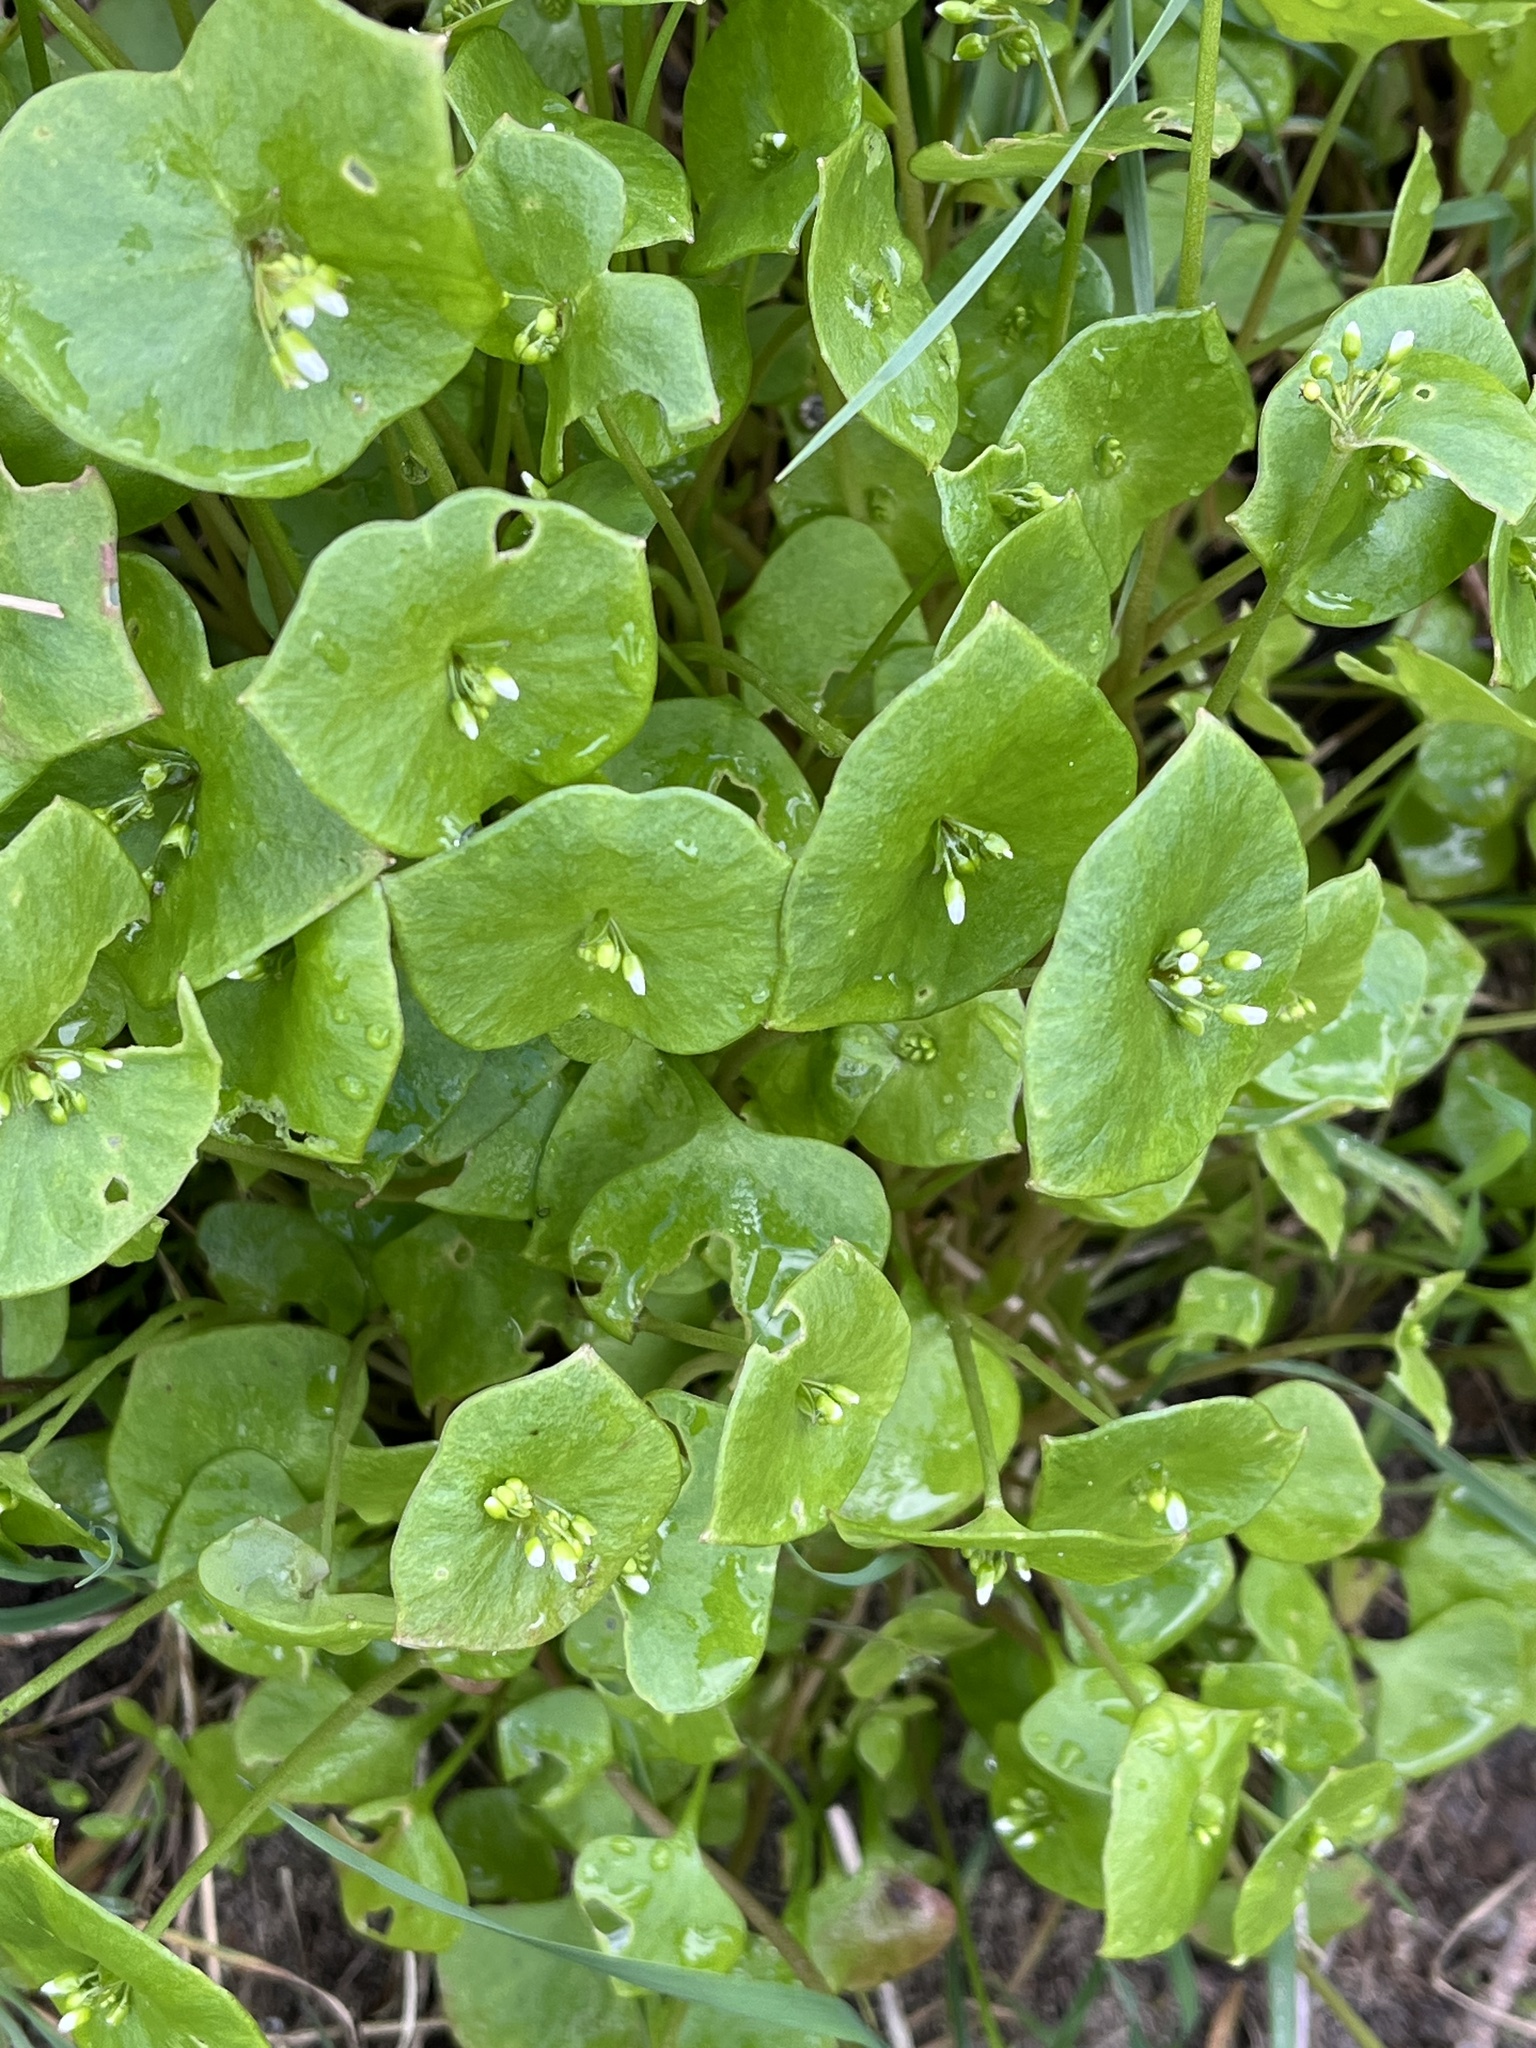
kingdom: Plantae
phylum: Tracheophyta
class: Magnoliopsida
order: Caryophyllales
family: Montiaceae
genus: Claytonia
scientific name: Claytonia perfoliata
